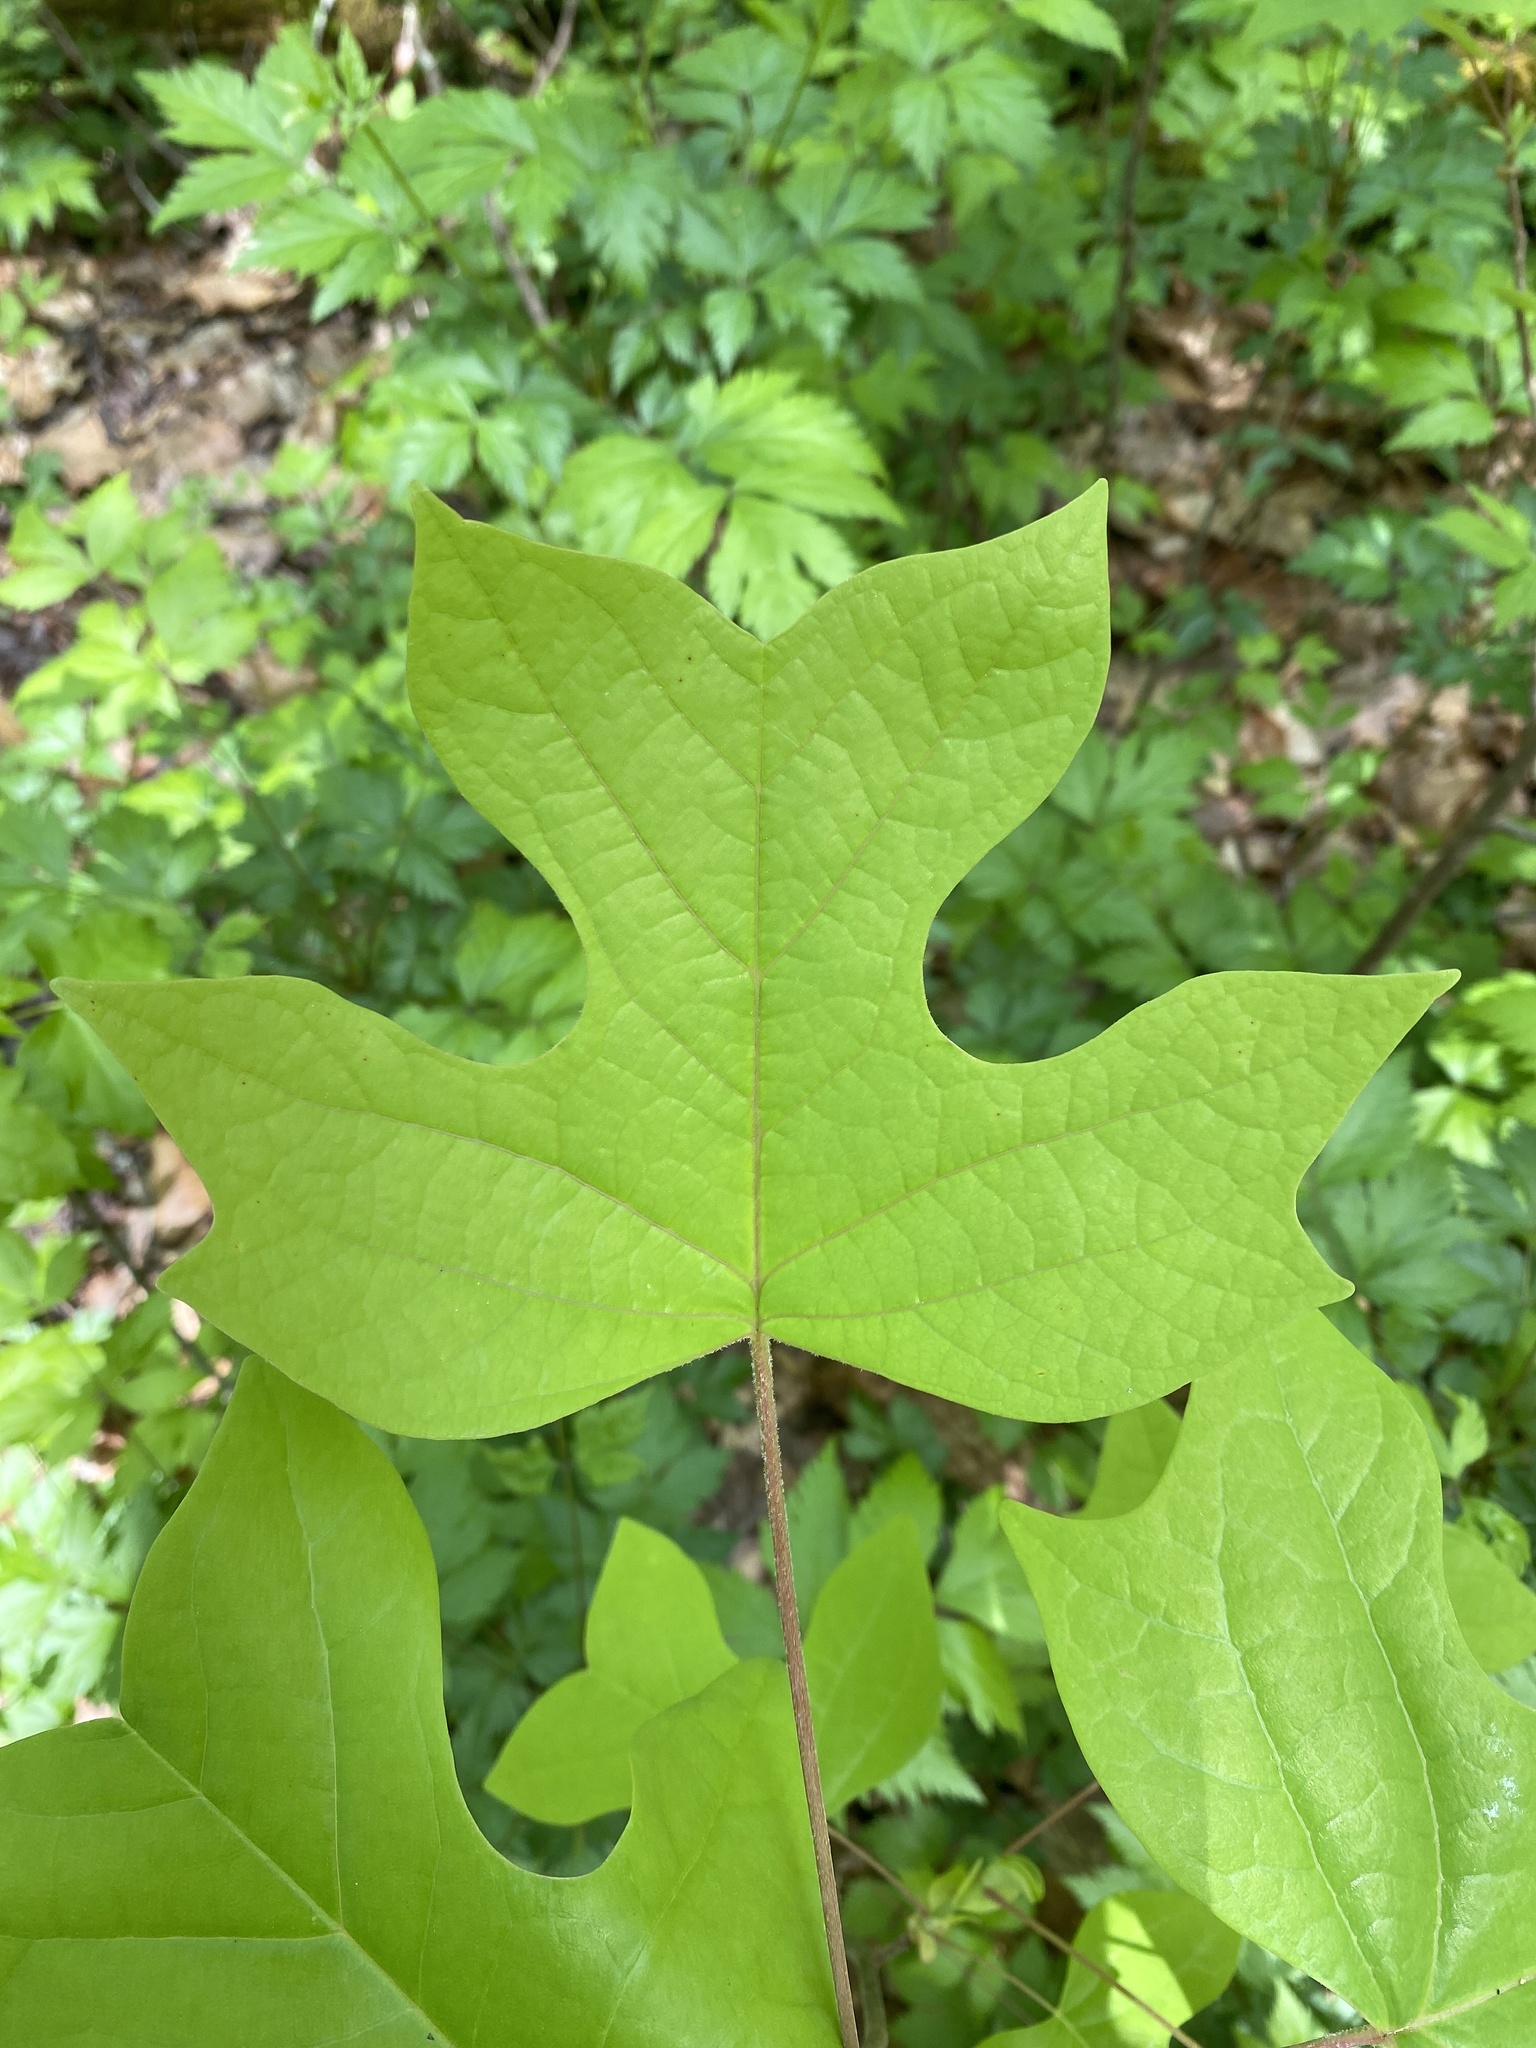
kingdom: Plantae
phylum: Tracheophyta
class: Magnoliopsida
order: Magnoliales
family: Magnoliaceae
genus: Liriodendron
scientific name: Liriodendron tulipifera
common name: Tulip tree
